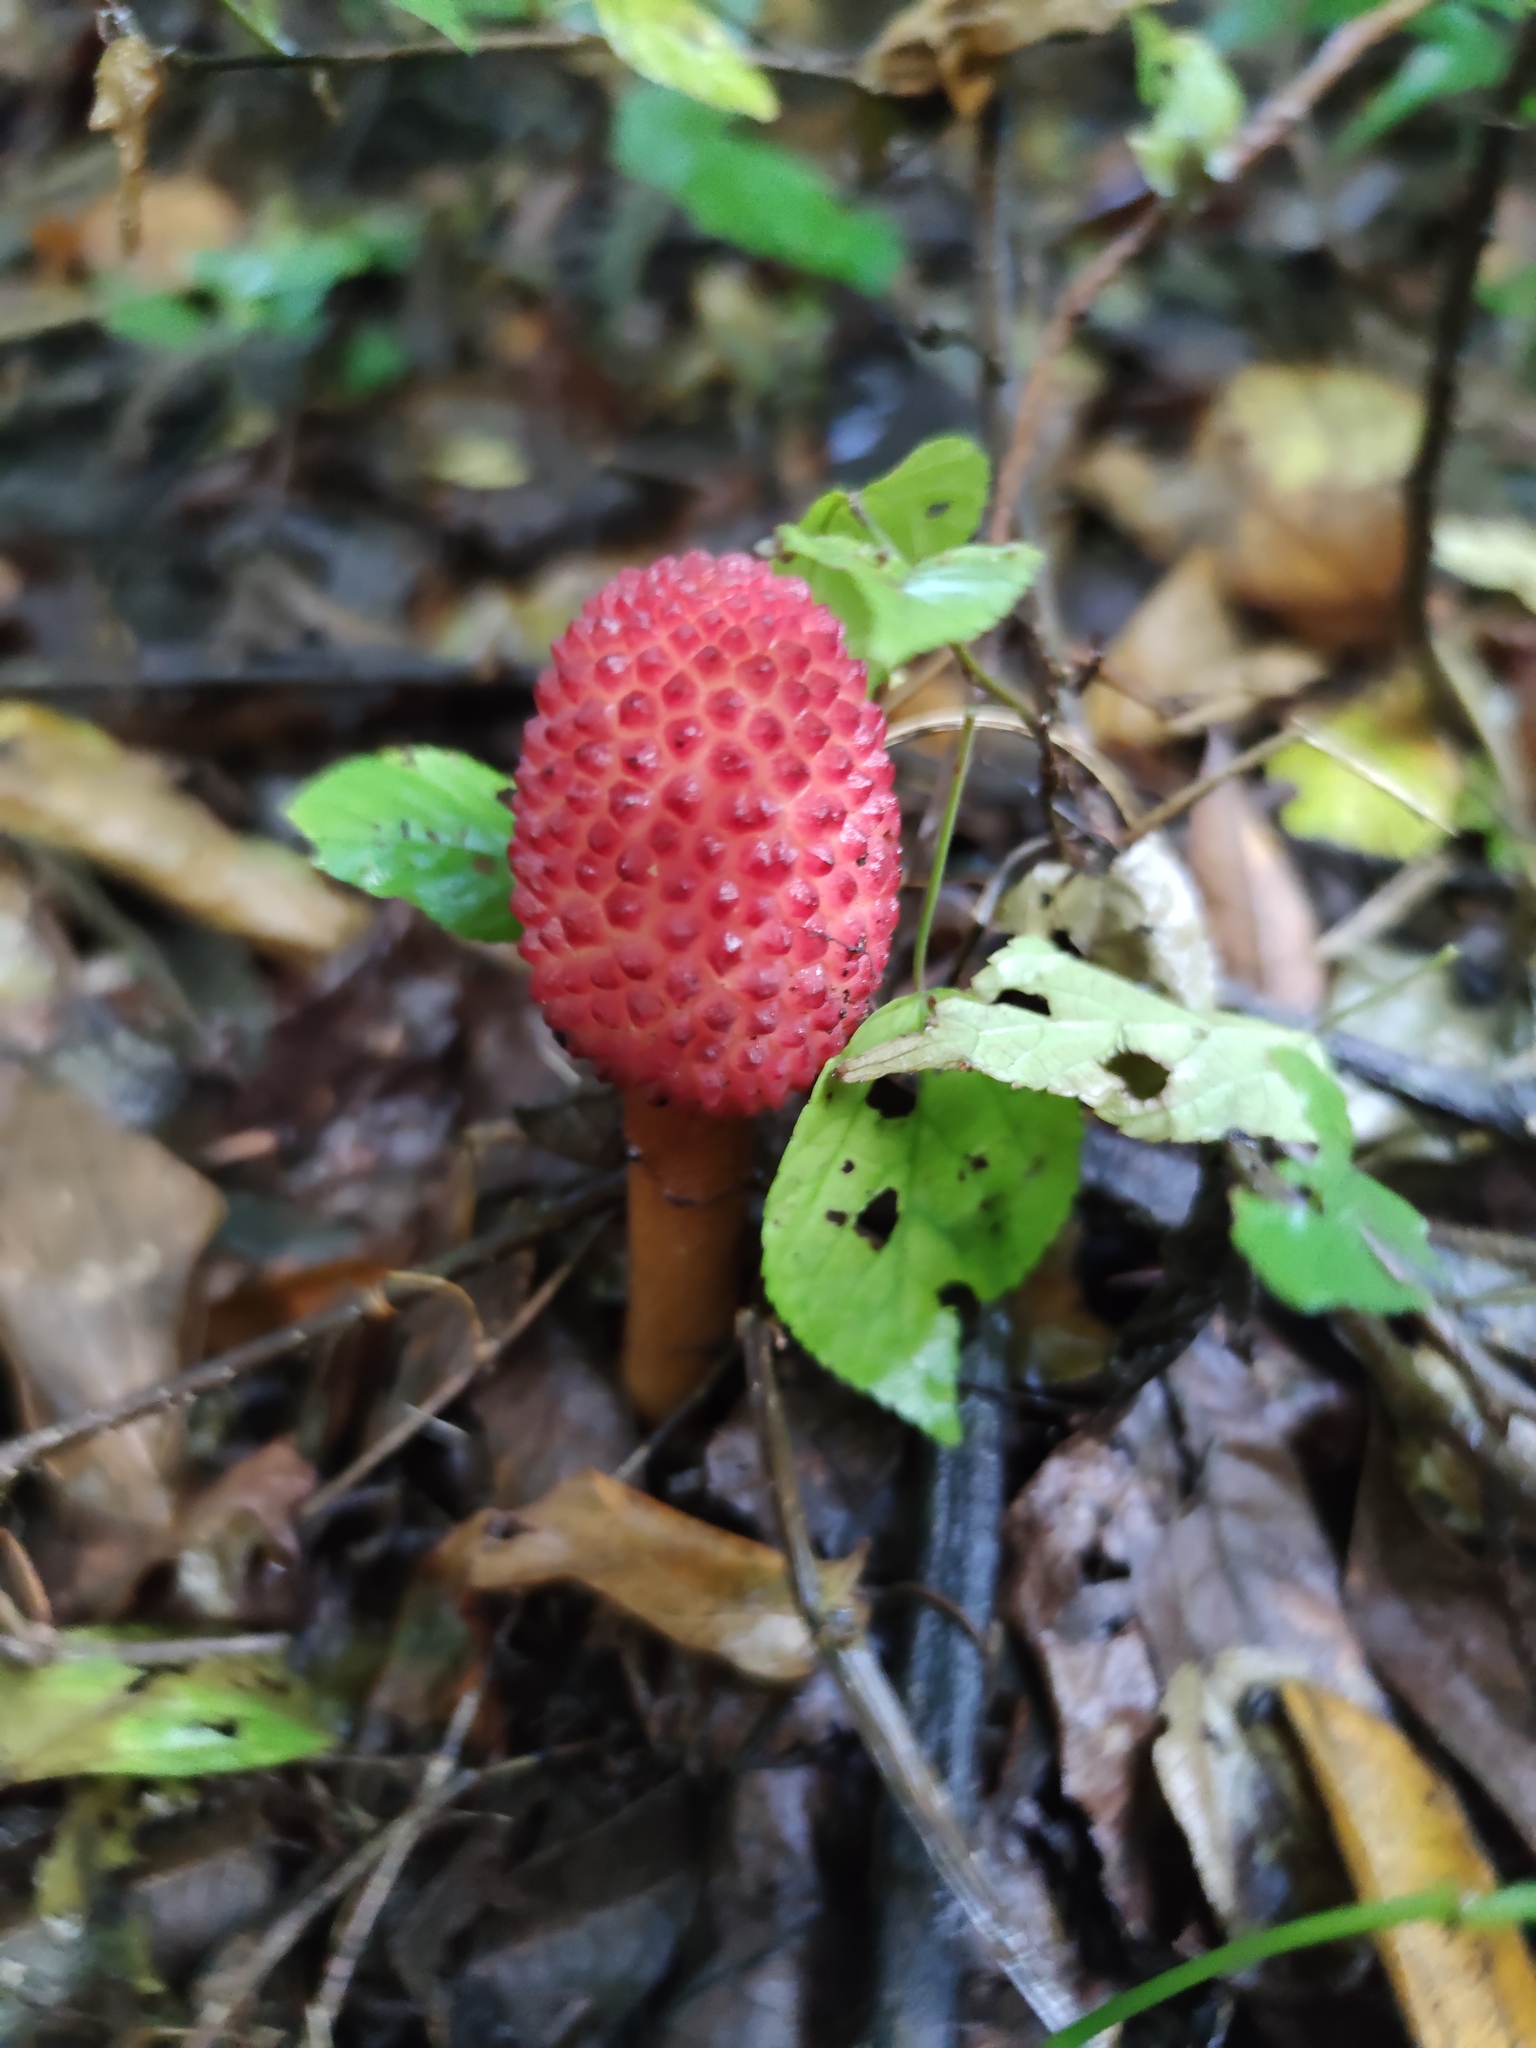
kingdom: Plantae
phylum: Tracheophyta
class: Magnoliopsida
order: Santalales
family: Balanophoraceae
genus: Helosis
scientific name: Helosis cayennensis
